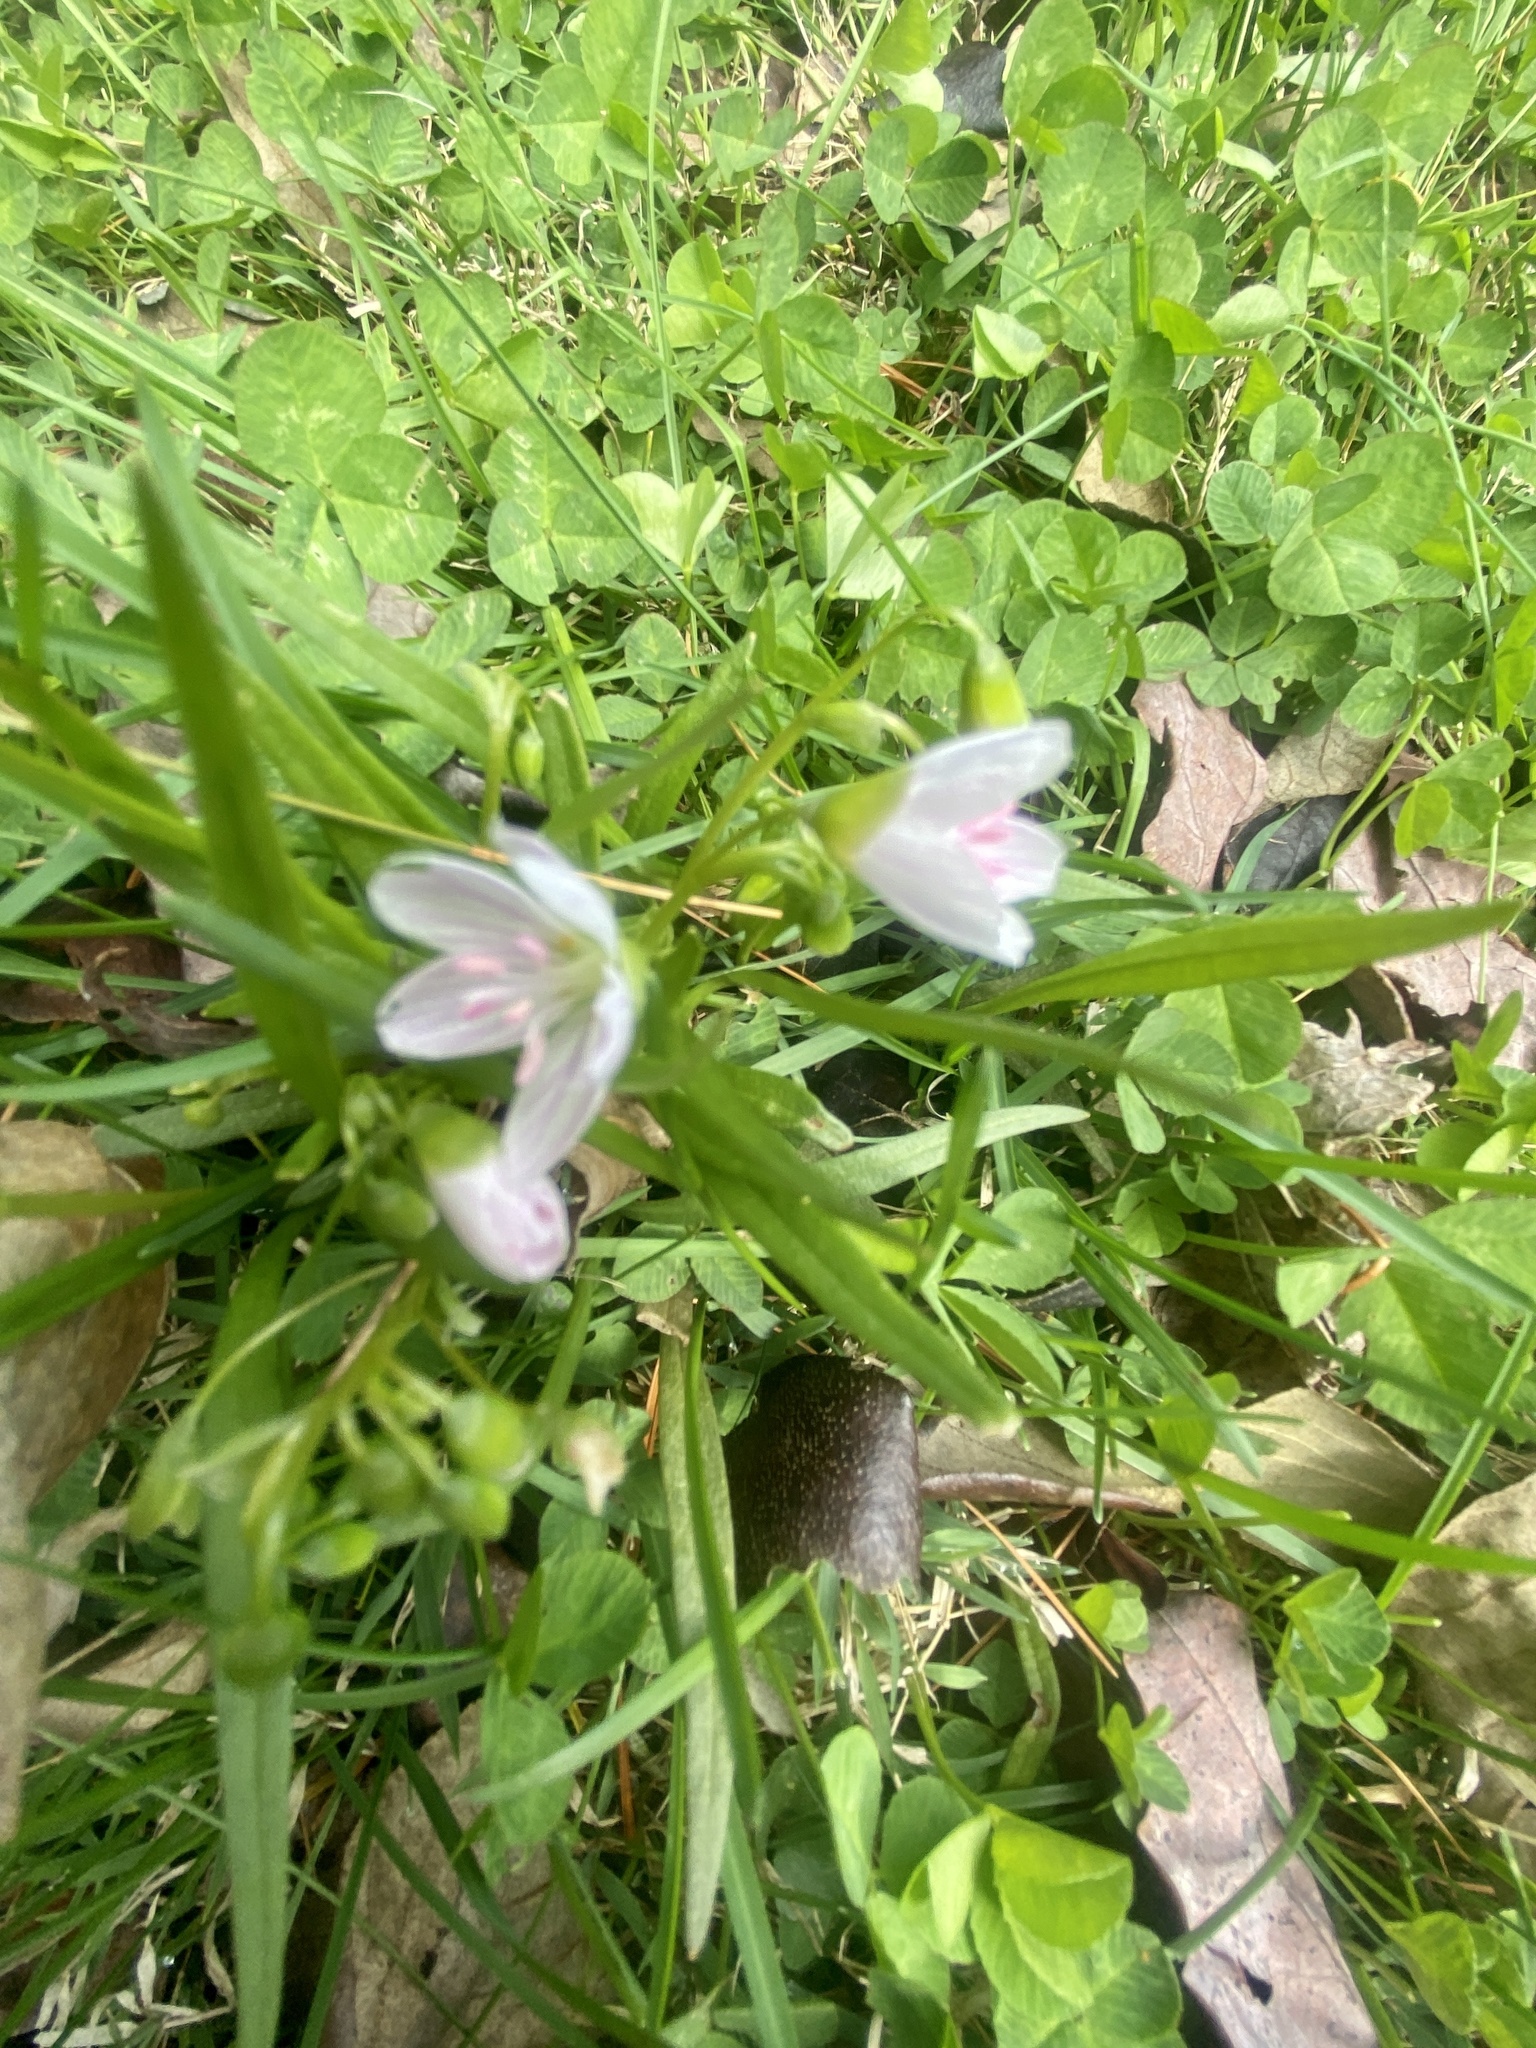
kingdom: Plantae
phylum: Tracheophyta
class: Magnoliopsida
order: Caryophyllales
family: Montiaceae
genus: Claytonia
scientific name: Claytonia virginica
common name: Virginia springbeauty
